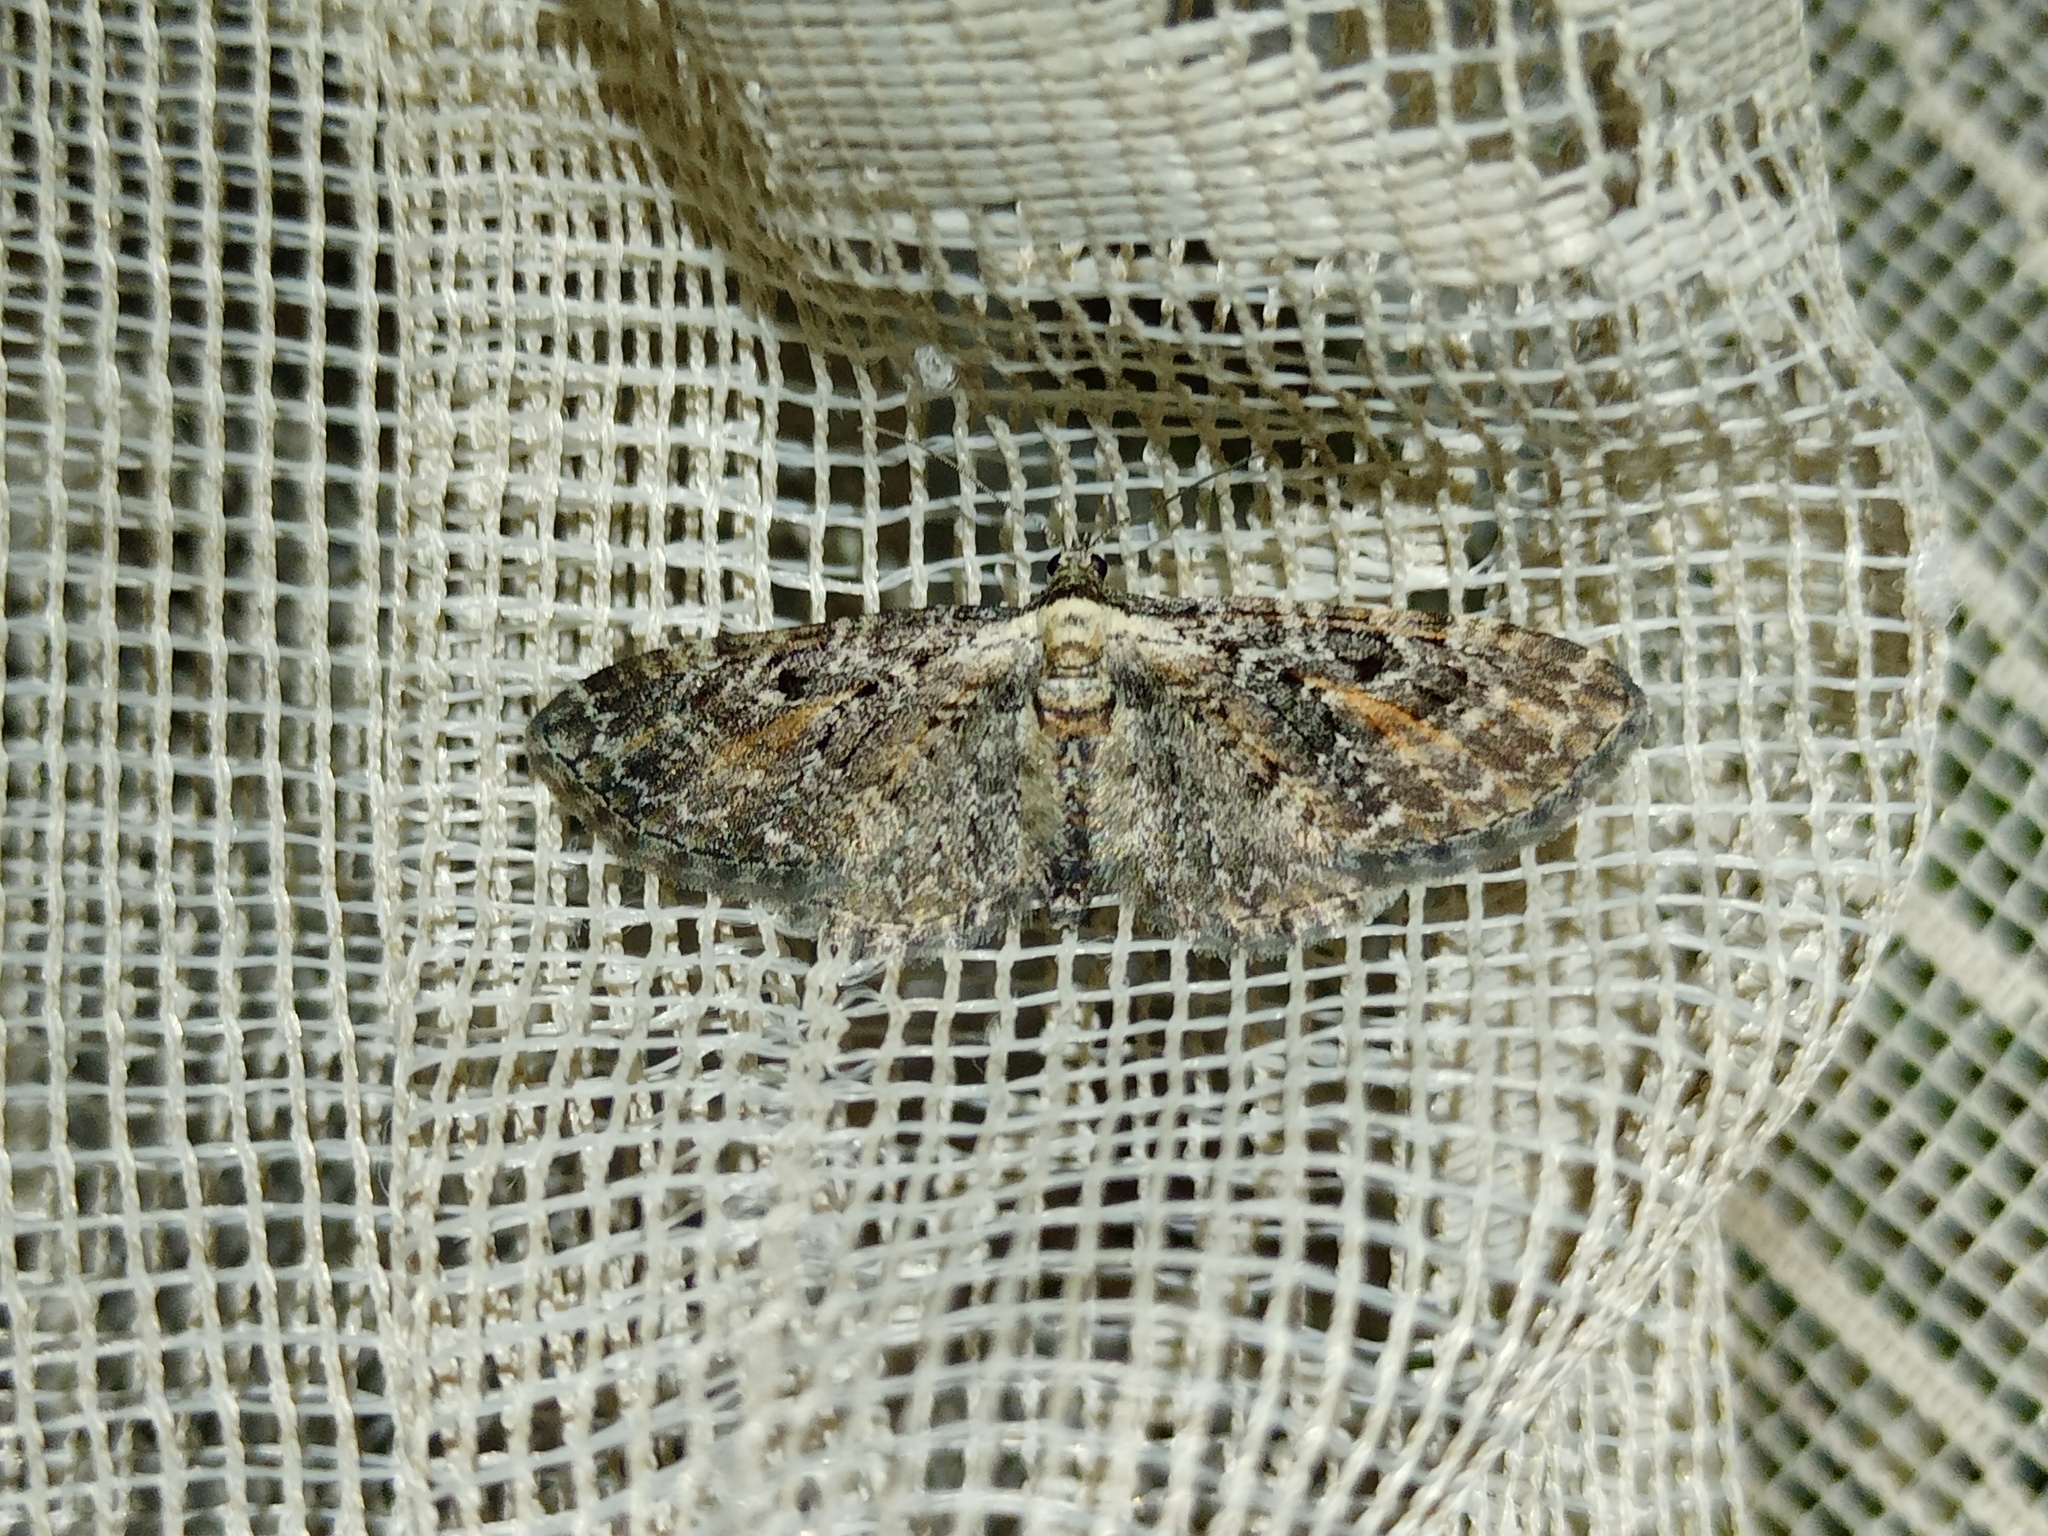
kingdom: Animalia
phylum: Arthropoda
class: Insecta
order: Lepidoptera
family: Geometridae
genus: Eupithecia
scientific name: Eupithecia icterata
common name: Tawny speckled pug
